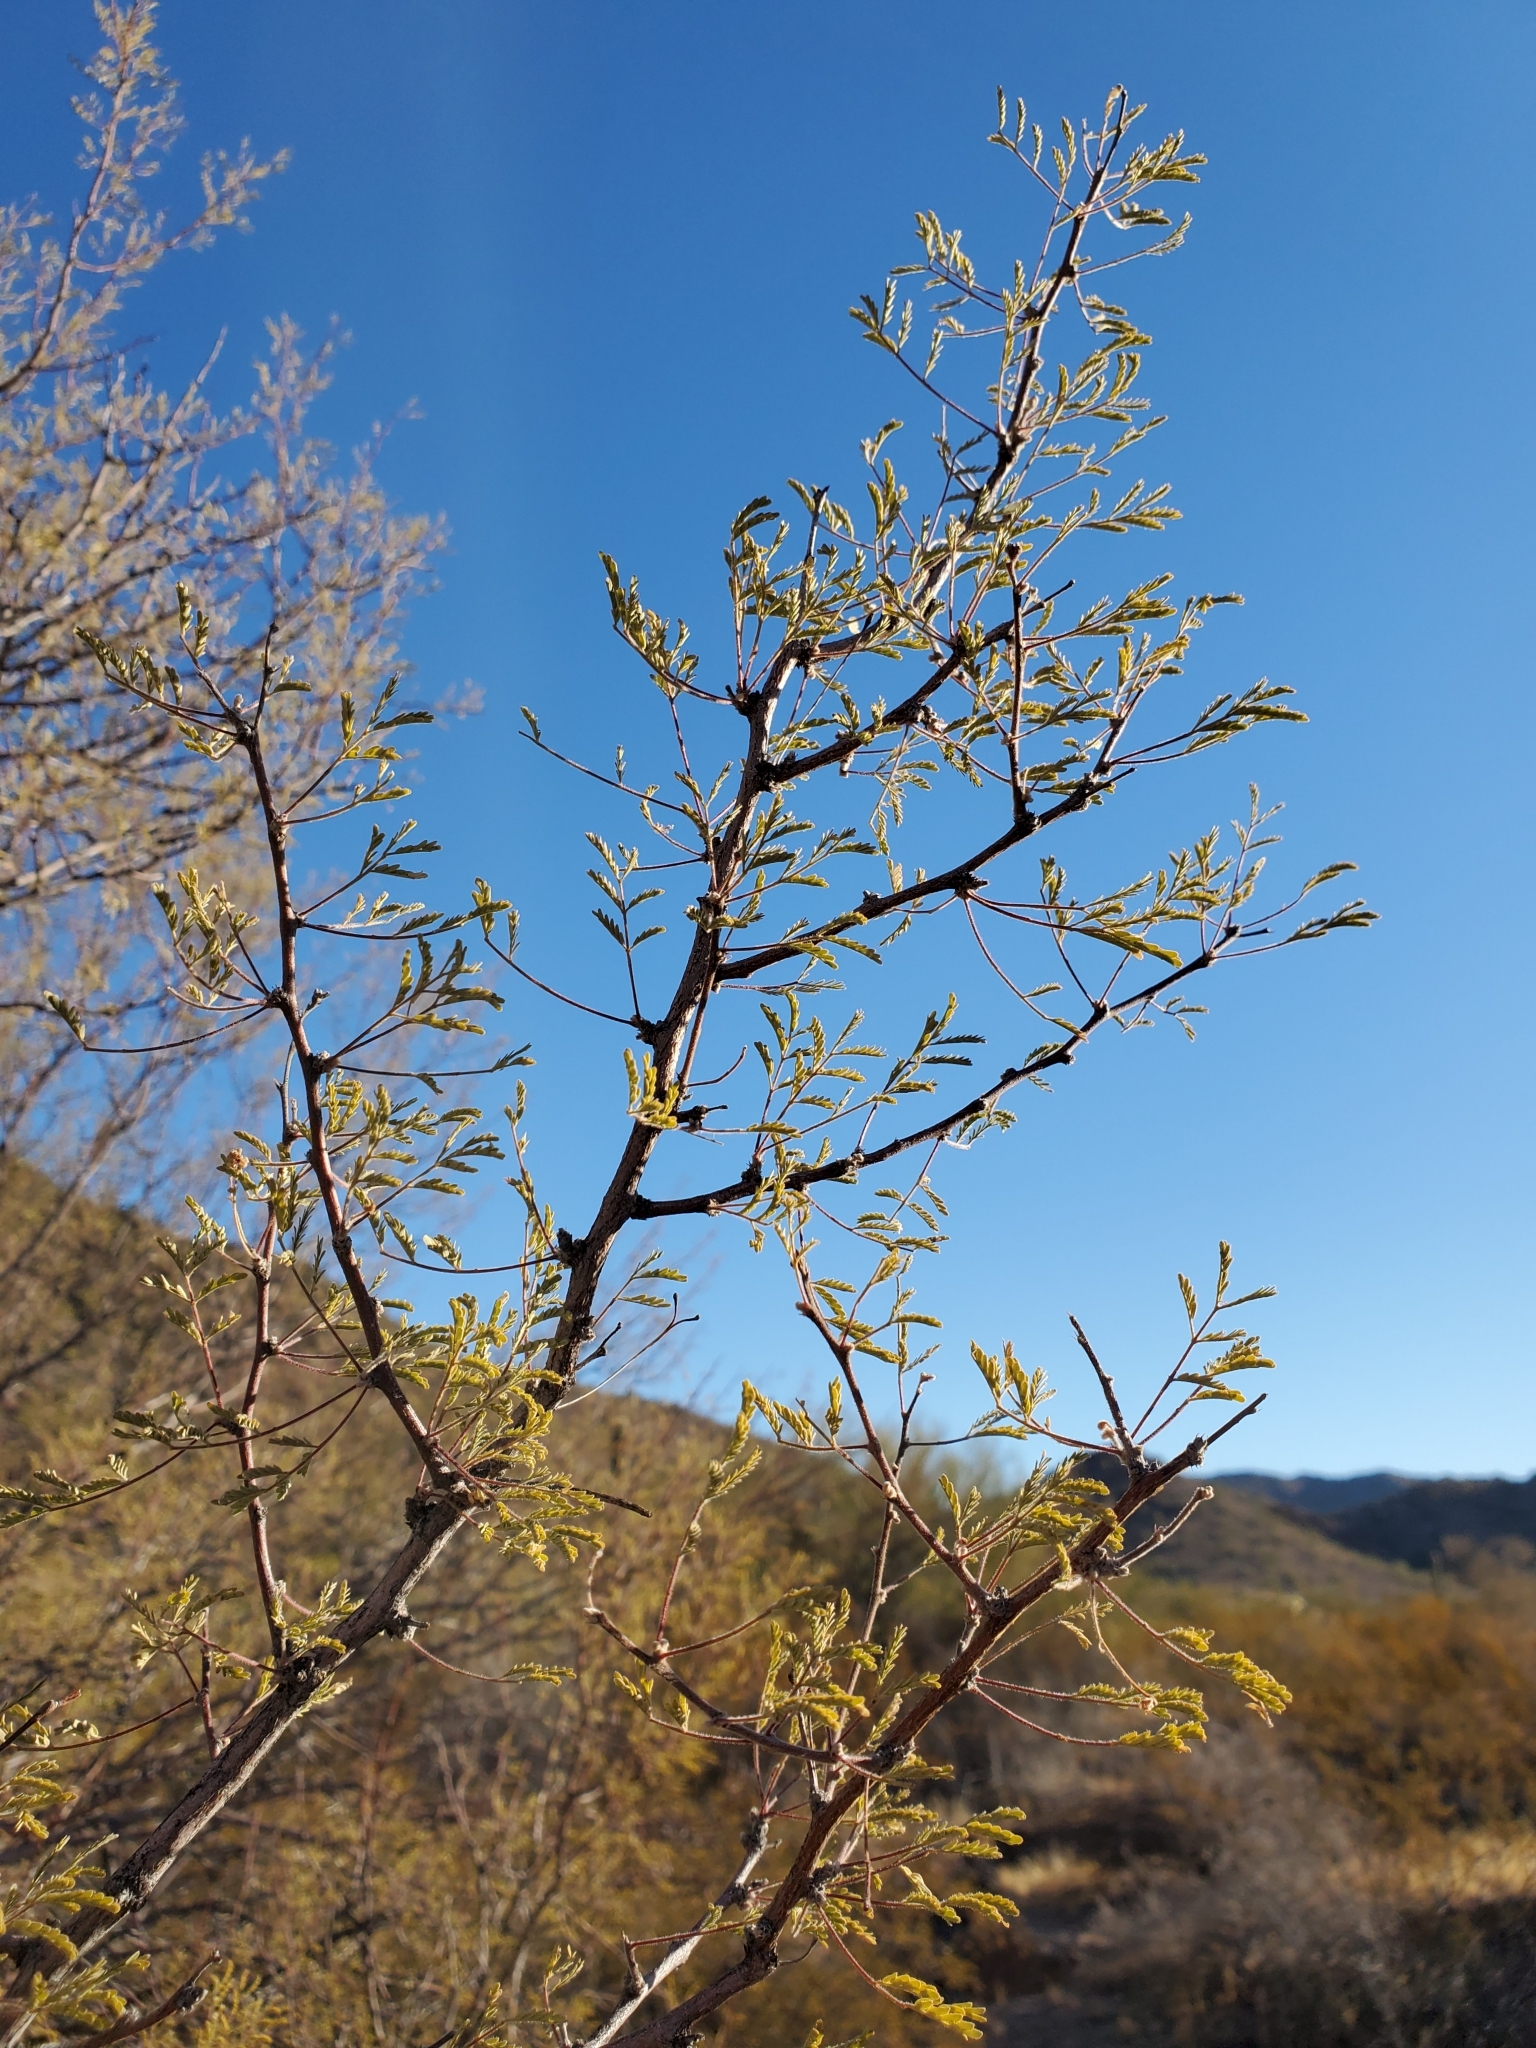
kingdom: Plantae
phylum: Tracheophyta
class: Magnoliopsida
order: Fabales
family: Fabaceae
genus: Vachellia
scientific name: Vachellia constricta
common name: Mescat acacia
